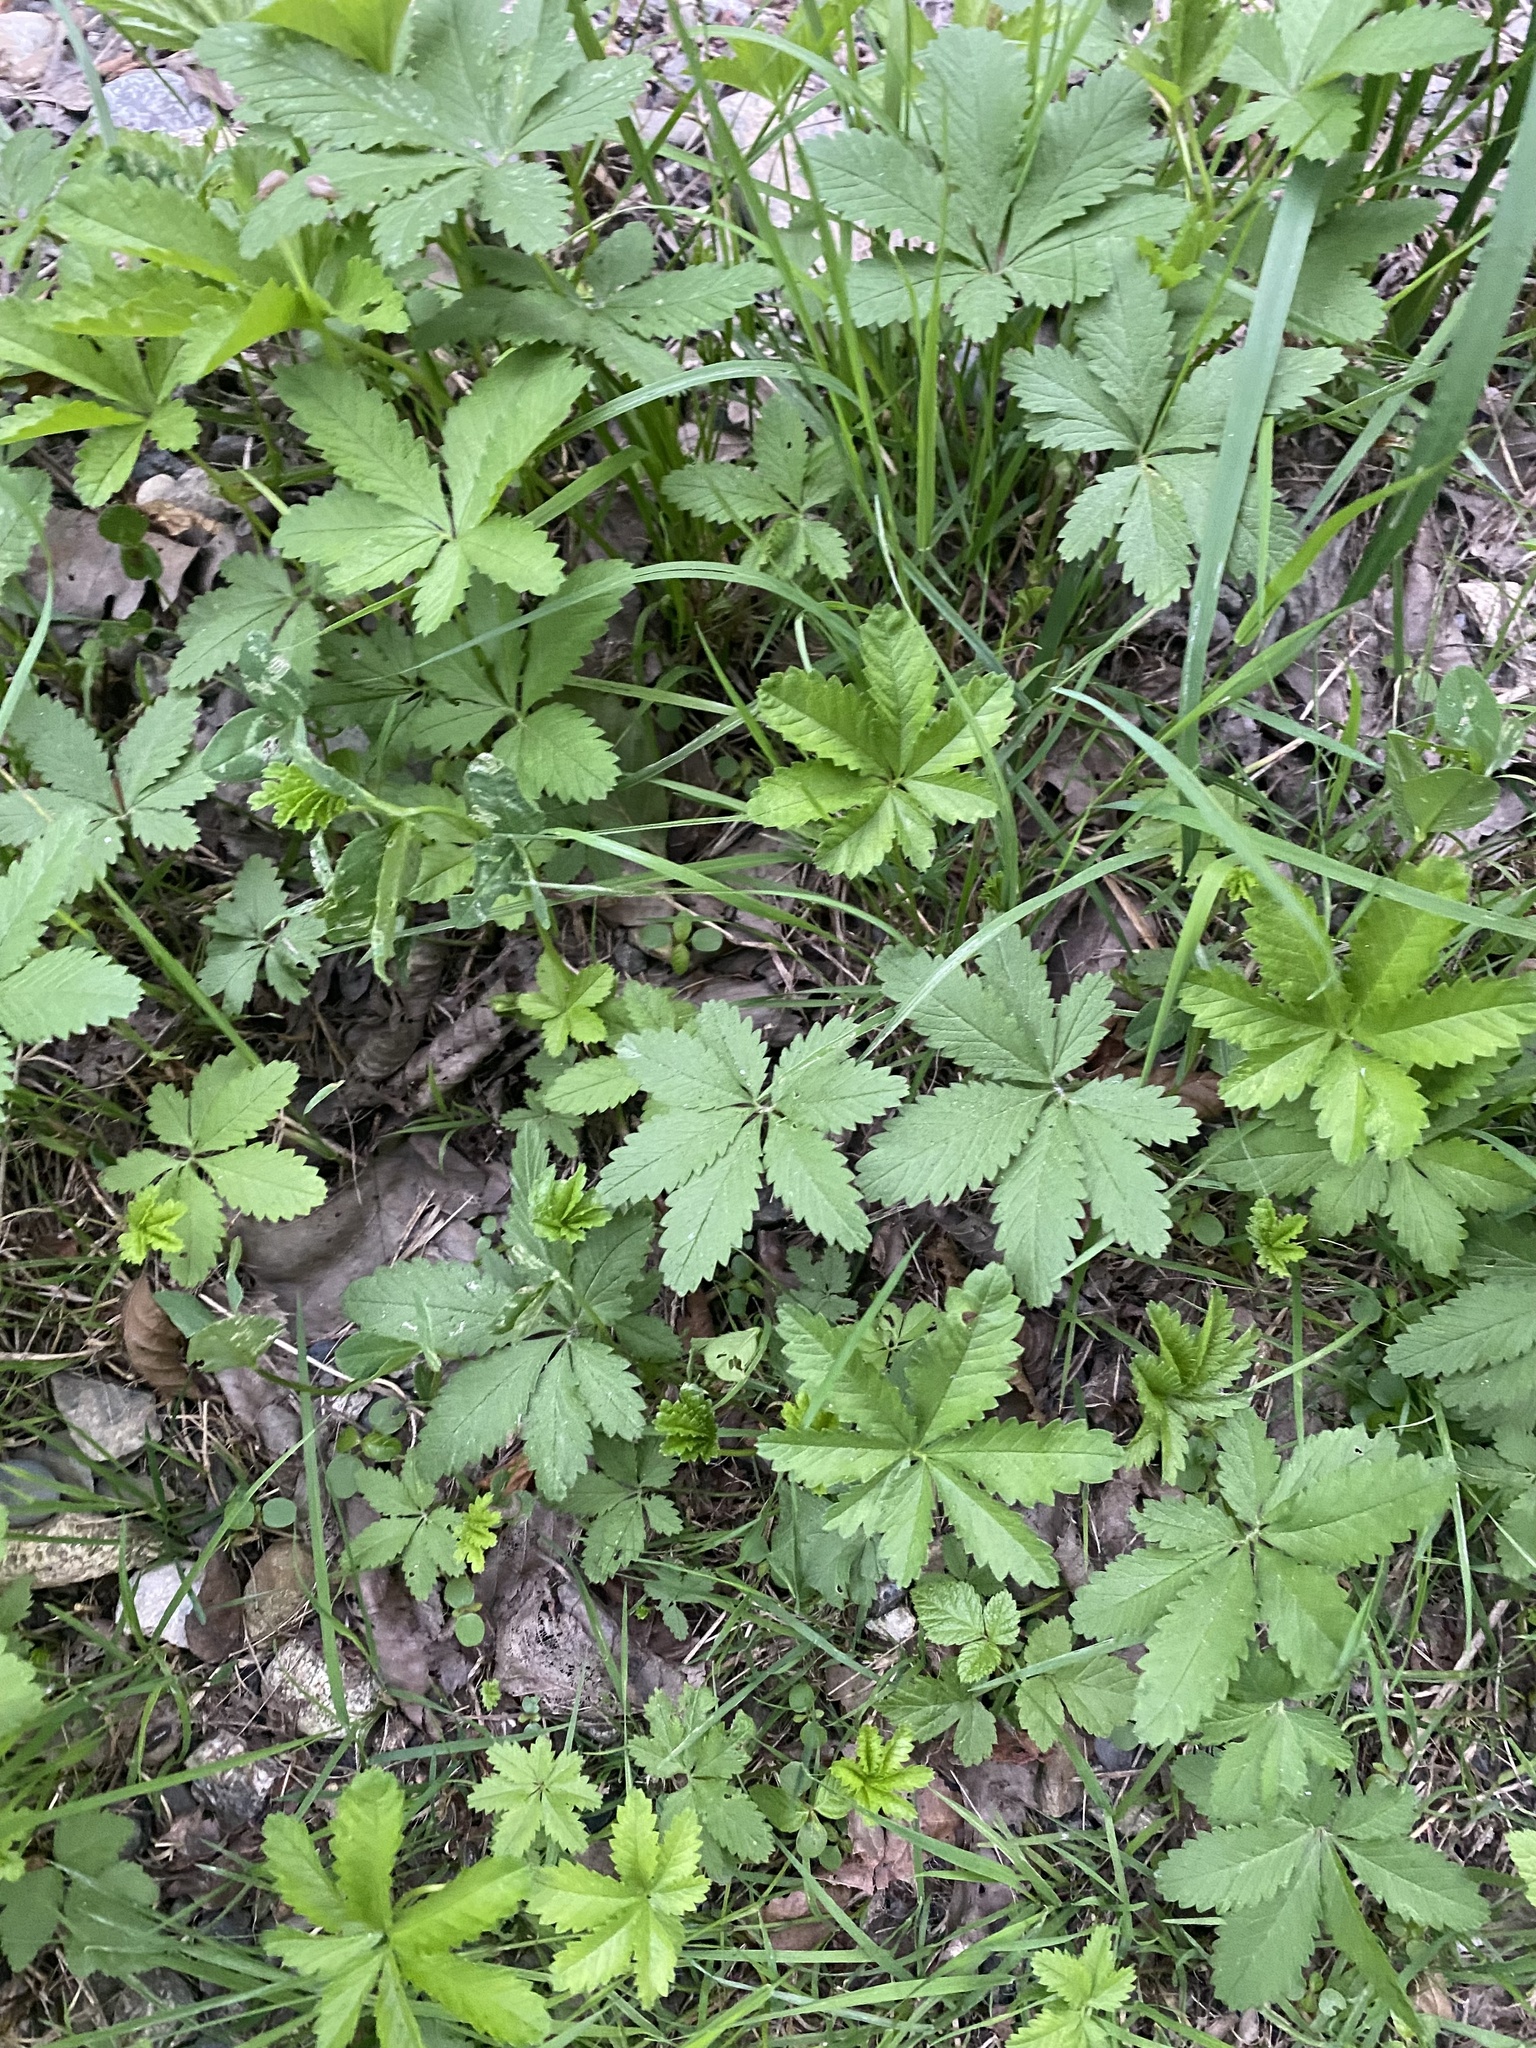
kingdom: Plantae
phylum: Tracheophyta
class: Magnoliopsida
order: Rosales
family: Rosaceae
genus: Potentilla
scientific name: Potentilla reptans
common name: Creeping cinquefoil
